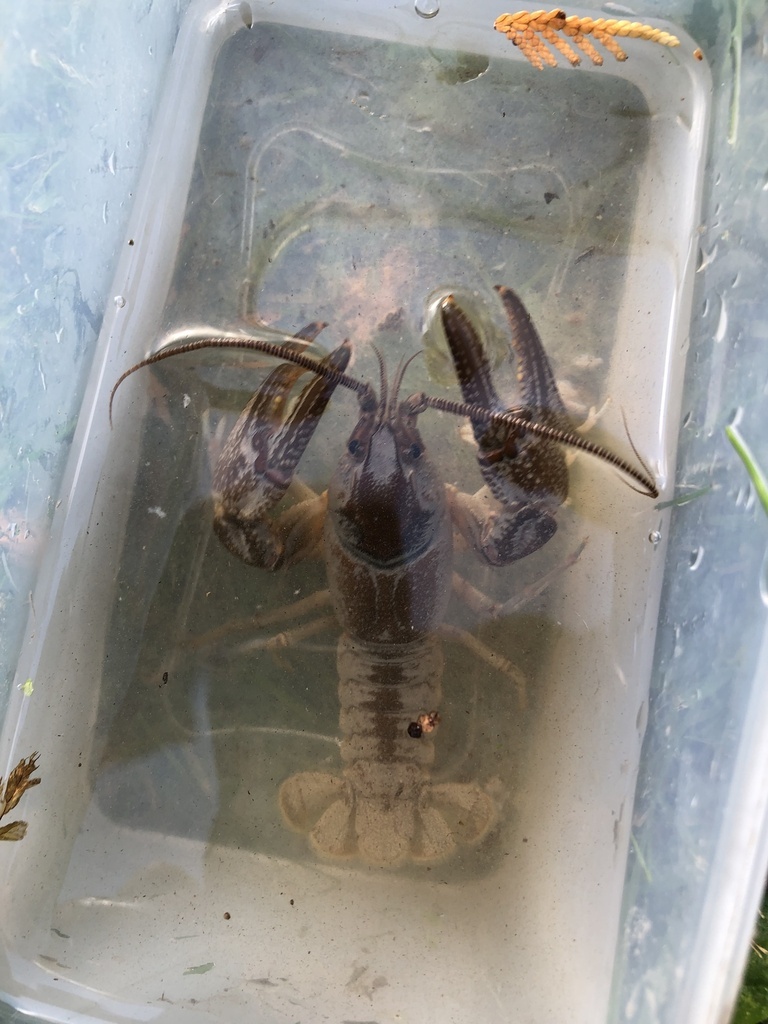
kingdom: Animalia
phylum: Arthropoda
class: Malacostraca
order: Decapoda
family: Cambaridae
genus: Cambarus
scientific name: Cambarus robustus
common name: Big water crayfish
